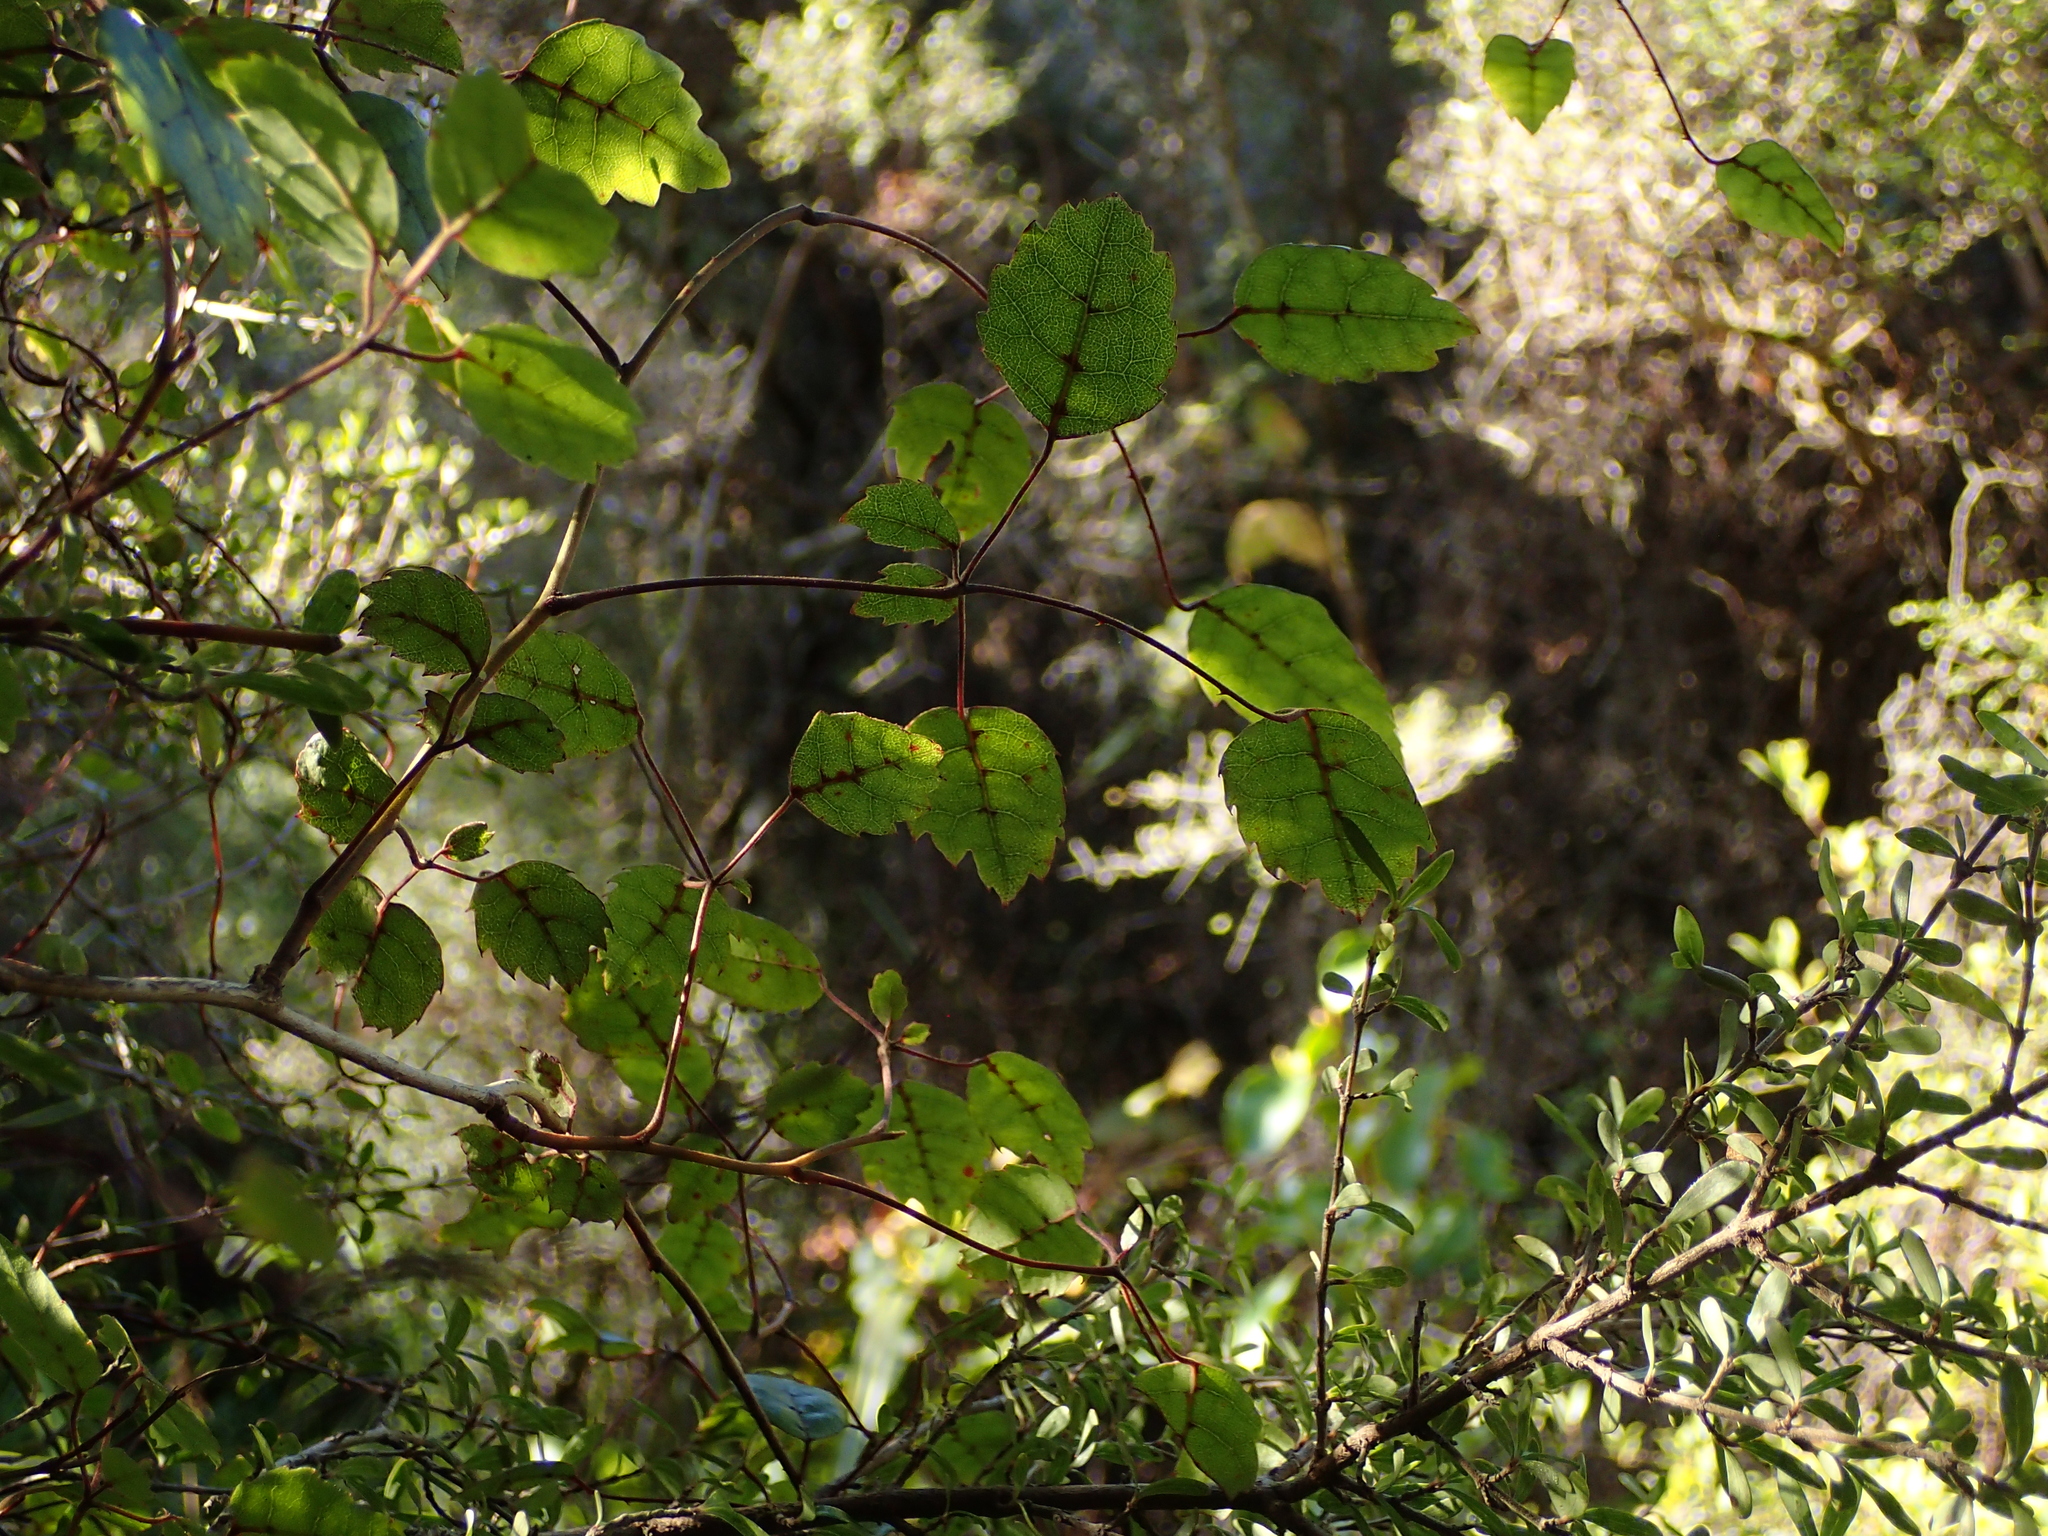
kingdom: Plantae
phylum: Tracheophyta
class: Magnoliopsida
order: Rosales
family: Rosaceae
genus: Rubus
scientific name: Rubus australis
